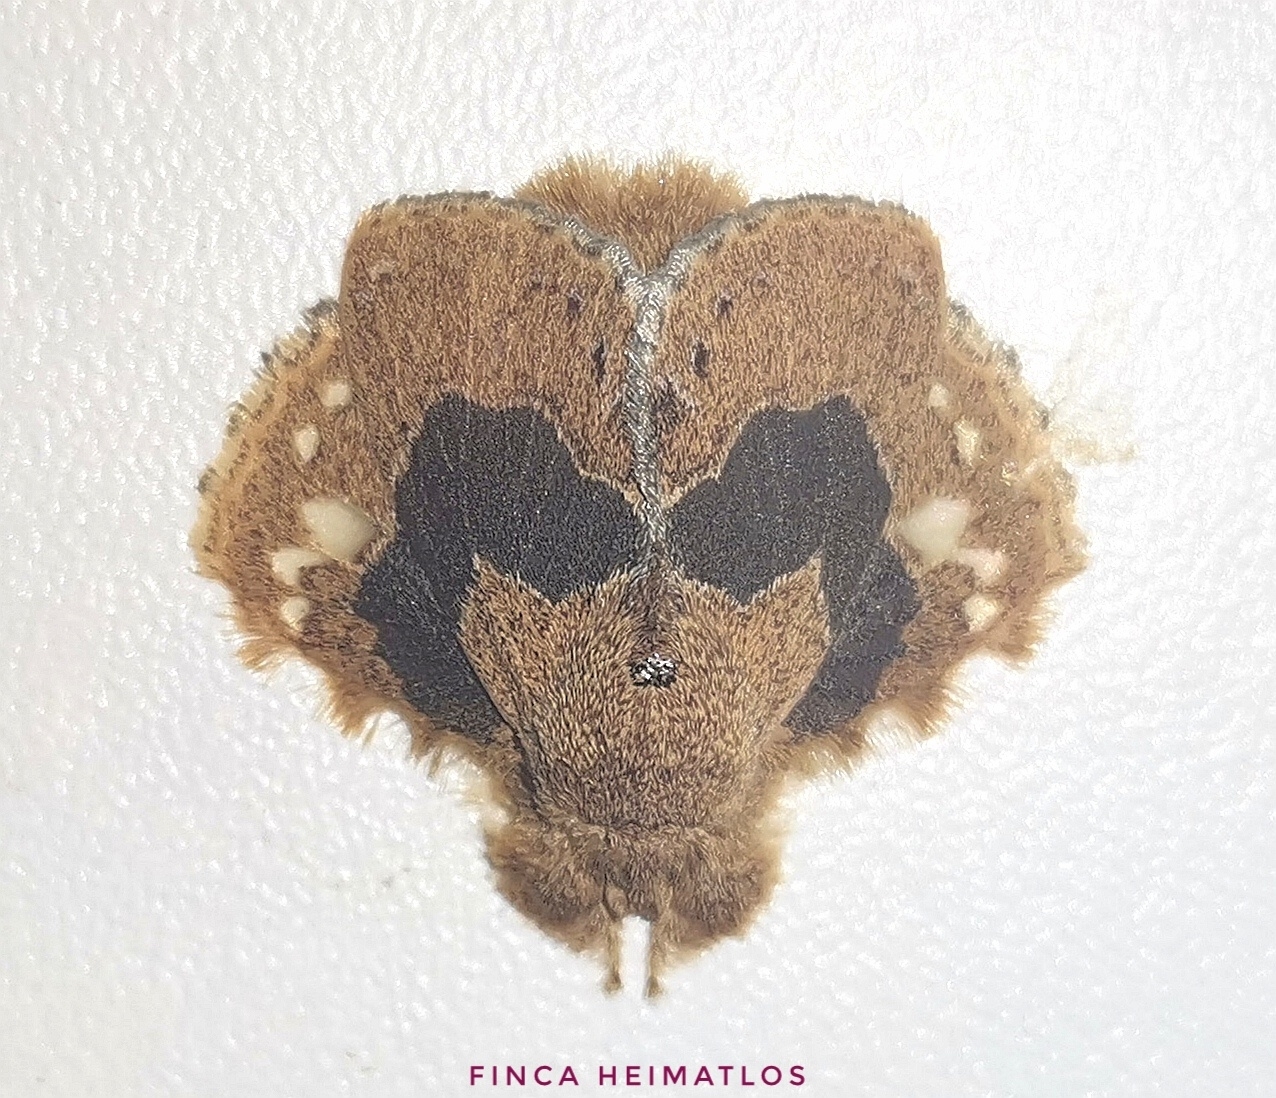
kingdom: Animalia
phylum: Arthropoda
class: Insecta
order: Lepidoptera
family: Lasiocampidae
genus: Euglyphis
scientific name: Euglyphis vitripuncta
